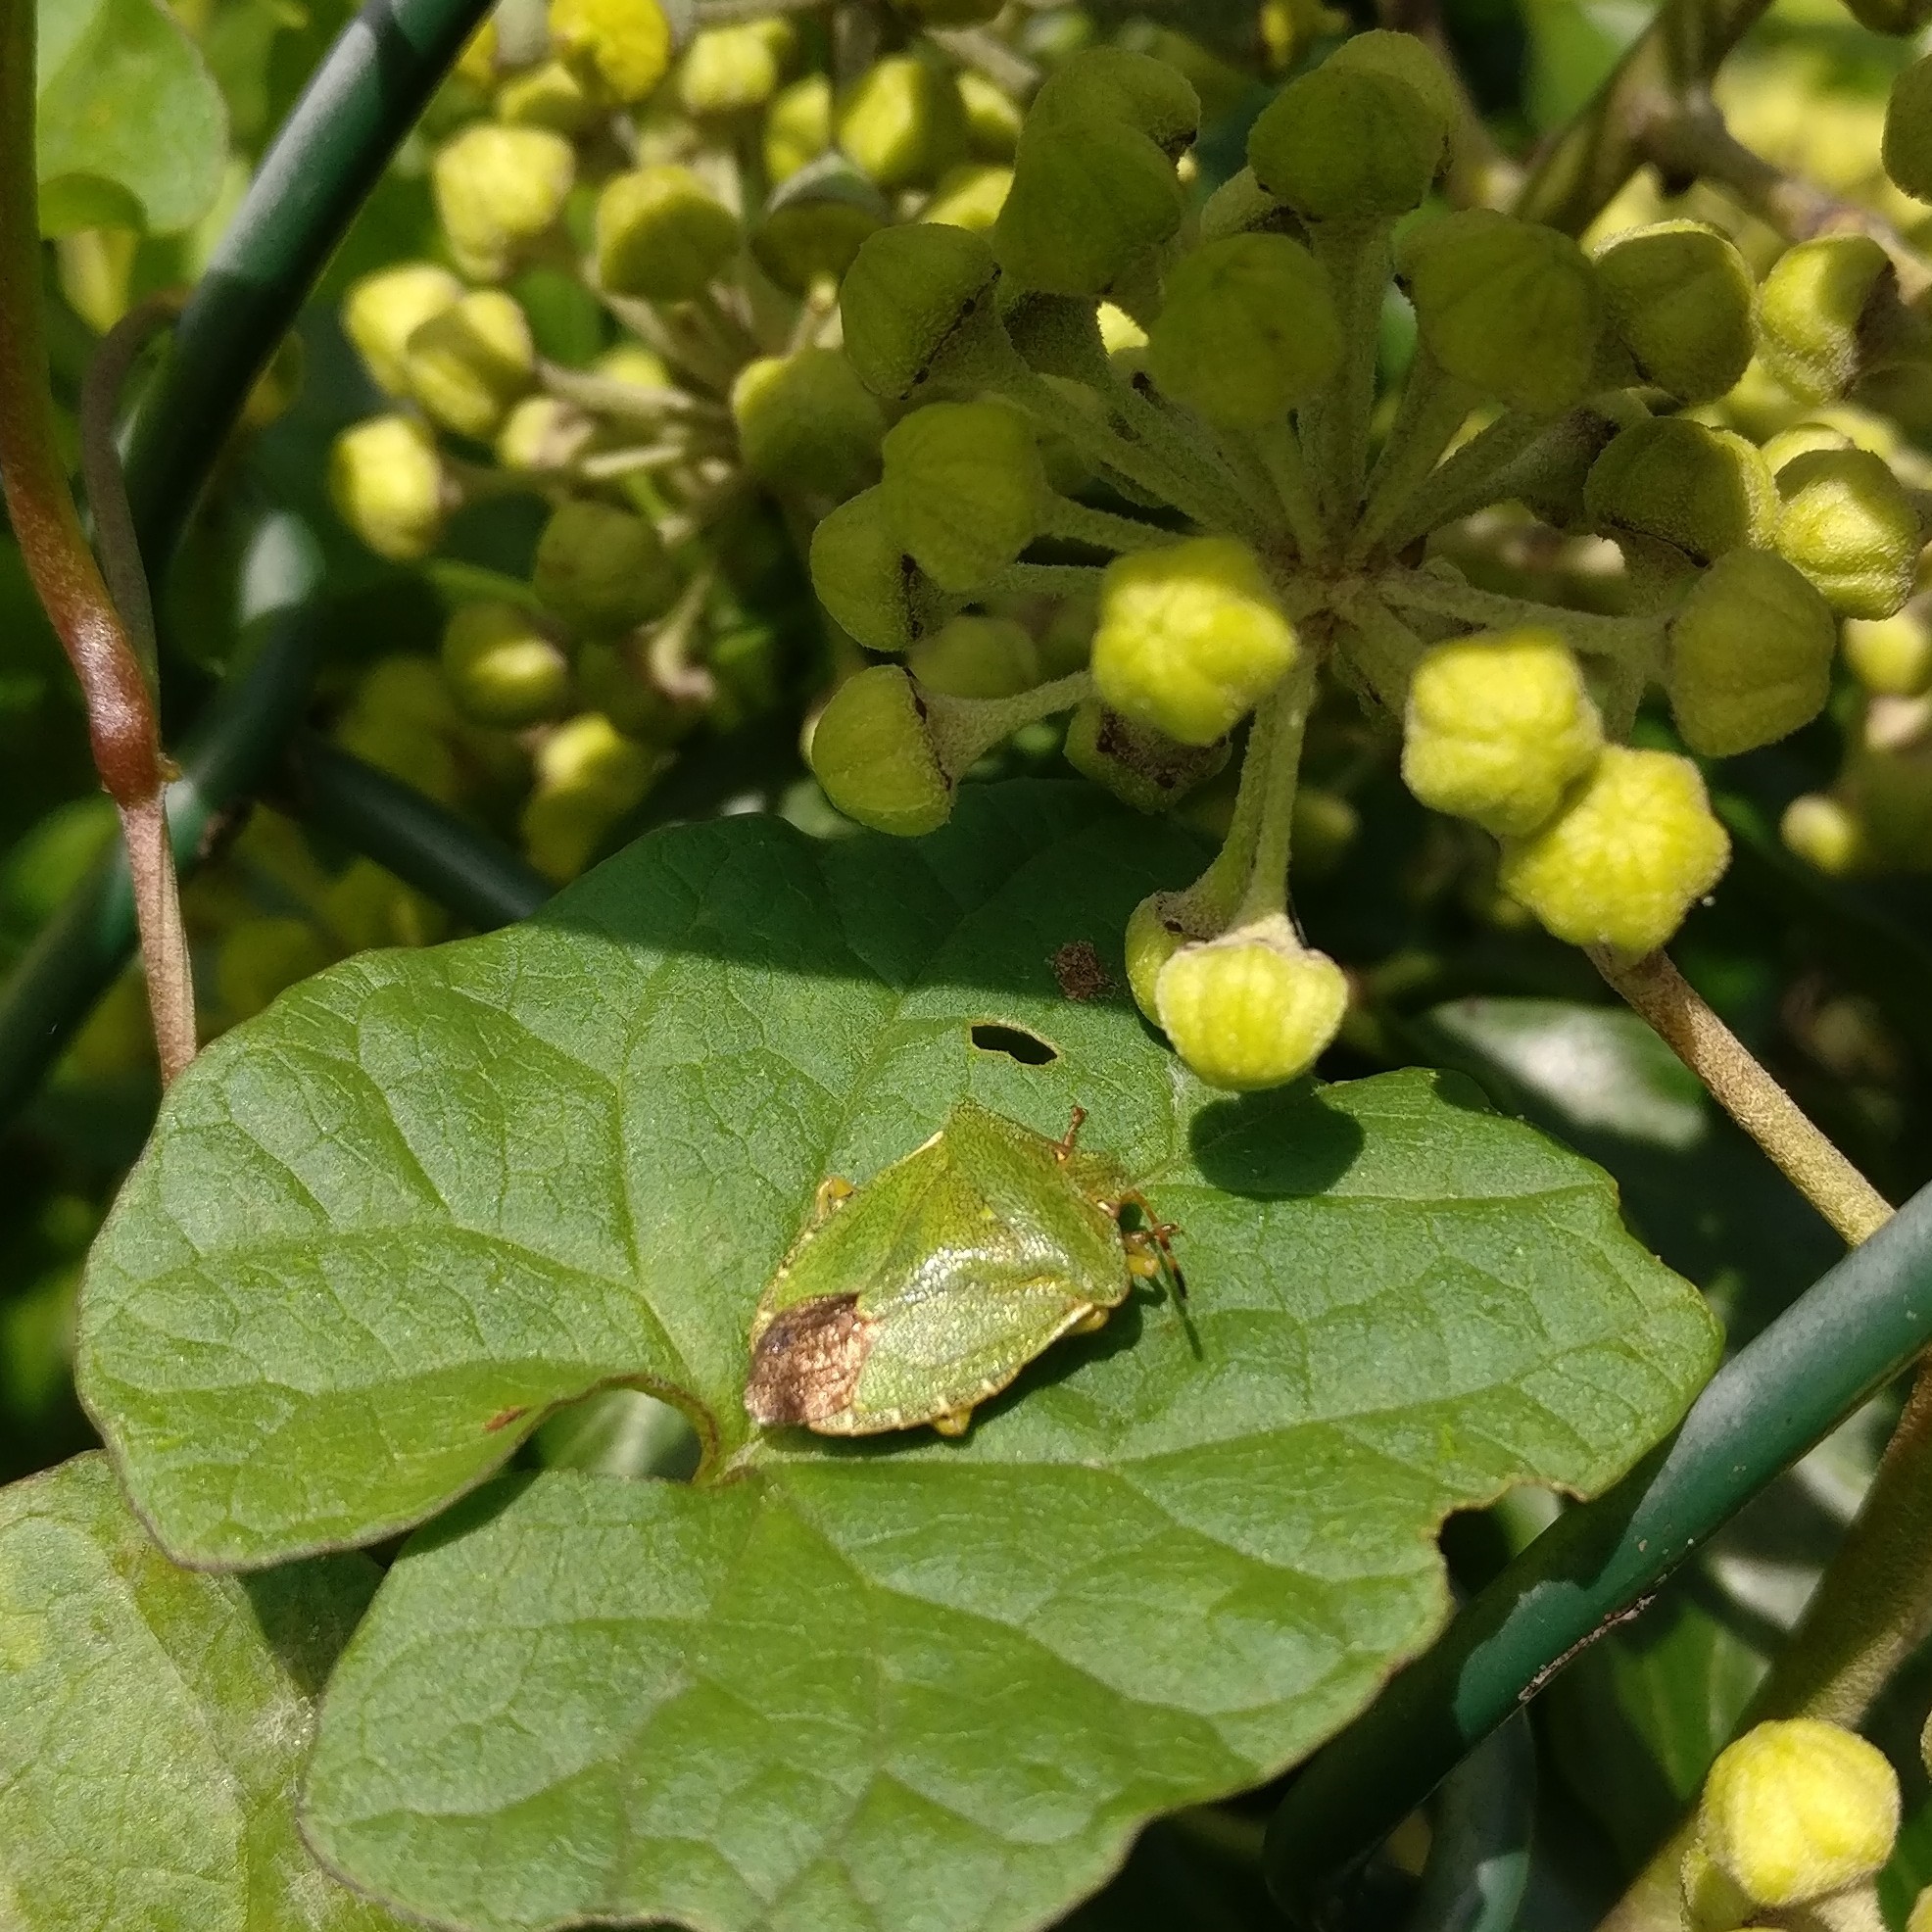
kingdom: Animalia
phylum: Arthropoda
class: Insecta
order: Hemiptera
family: Pentatomidae
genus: Palomena
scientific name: Palomena prasina
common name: Green shieldbug
